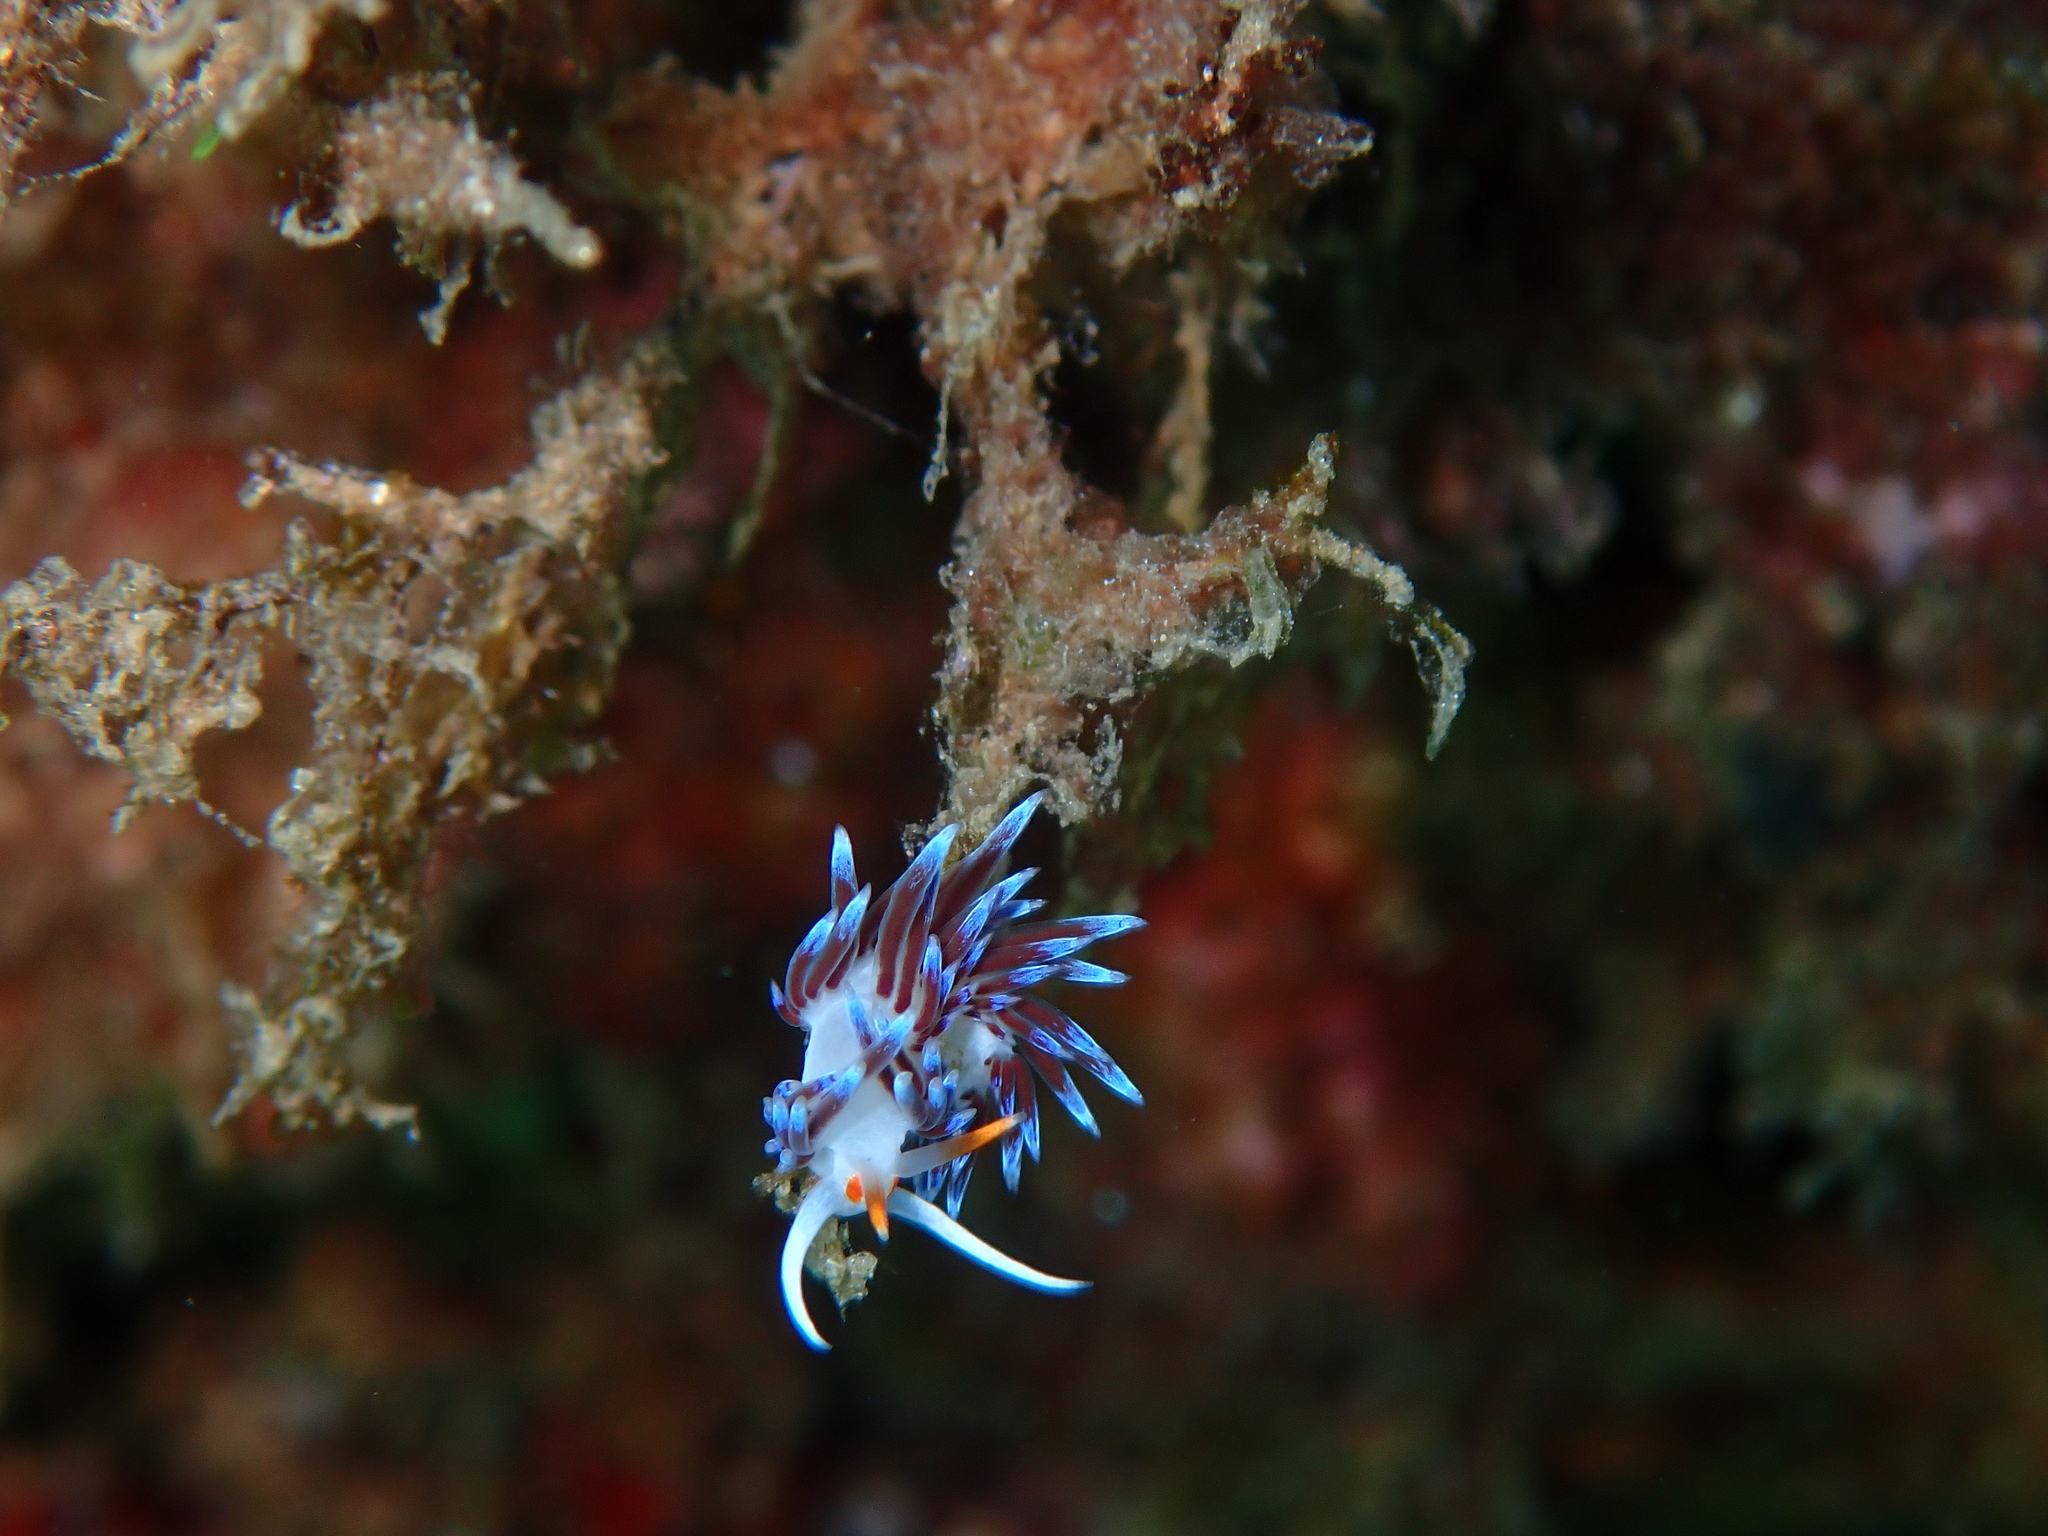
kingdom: Animalia
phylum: Mollusca
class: Gastropoda
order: Nudibranchia
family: Facelinidae
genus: Cratena
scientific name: Cratena peregrina
